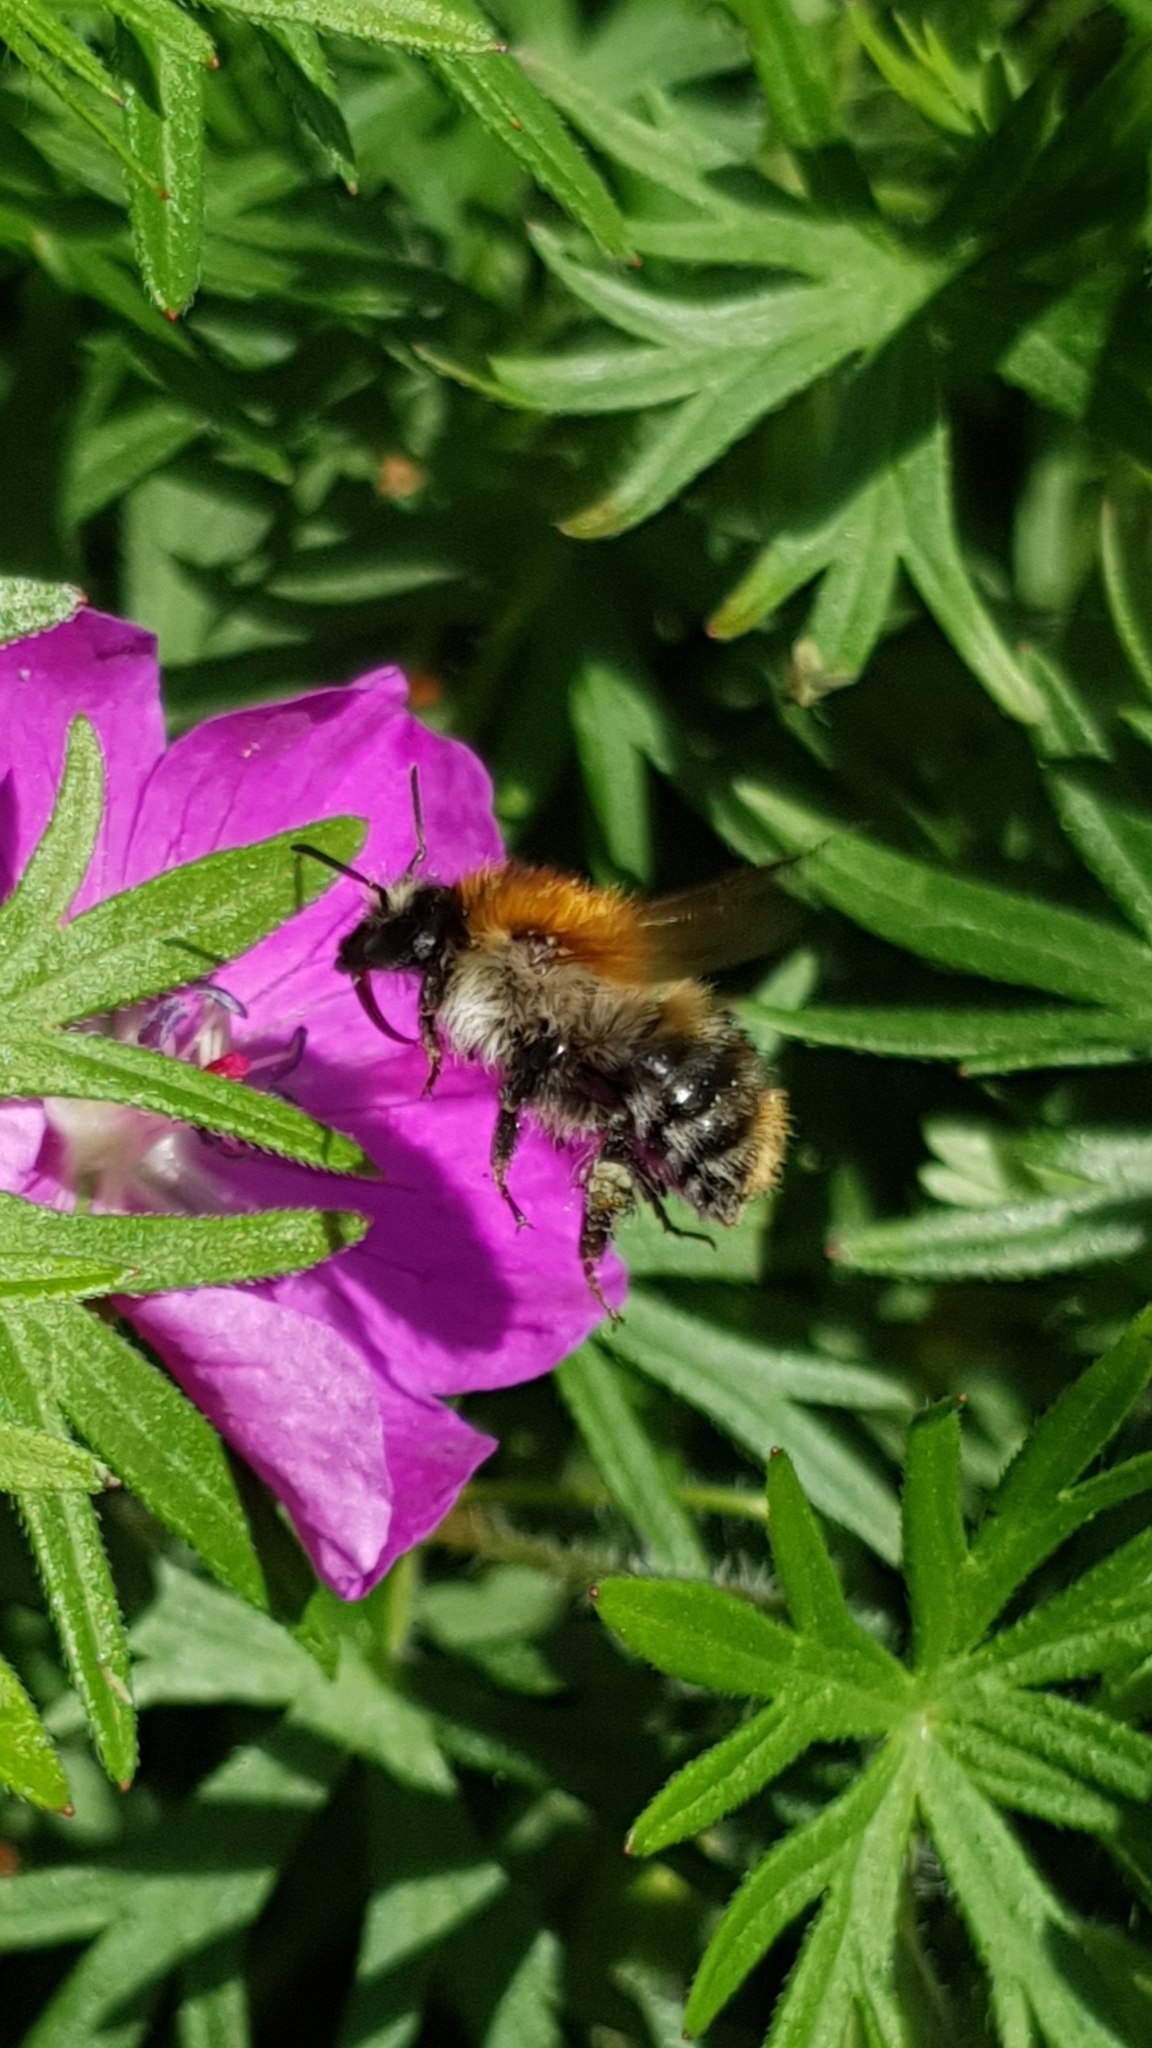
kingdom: Animalia
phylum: Arthropoda
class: Insecta
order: Hymenoptera
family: Apidae
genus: Bombus
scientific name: Bombus pascuorum
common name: Common carder bee
